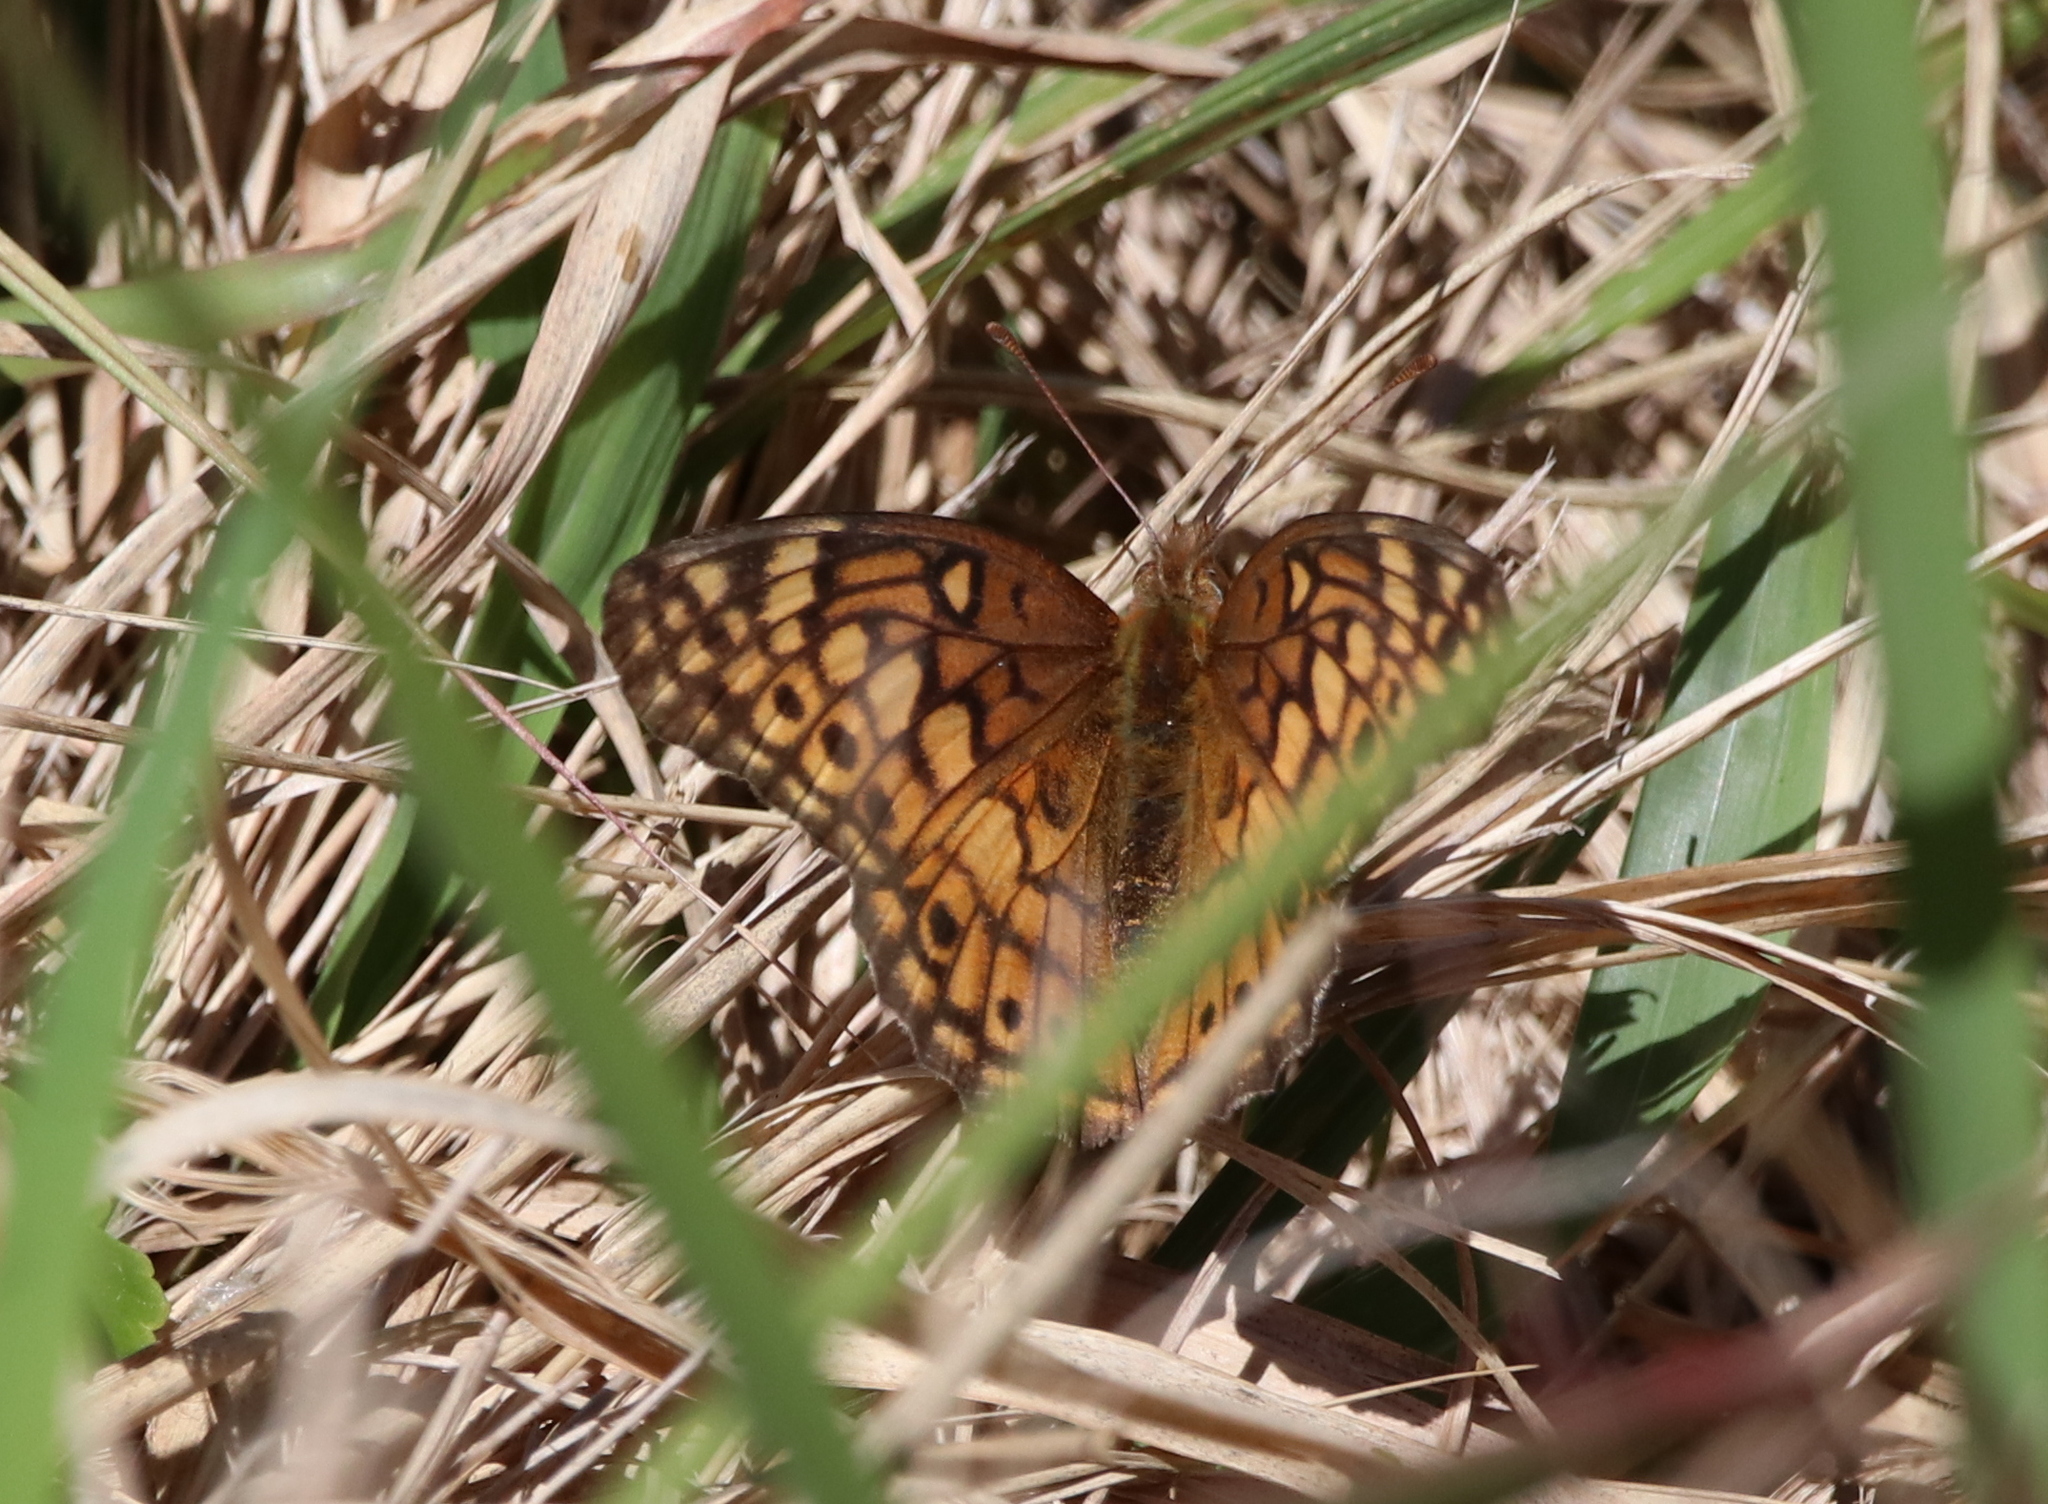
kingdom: Animalia
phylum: Arthropoda
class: Insecta
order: Lepidoptera
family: Nymphalidae
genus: Euptoieta
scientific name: Euptoieta claudia
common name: Variegated fritillary
